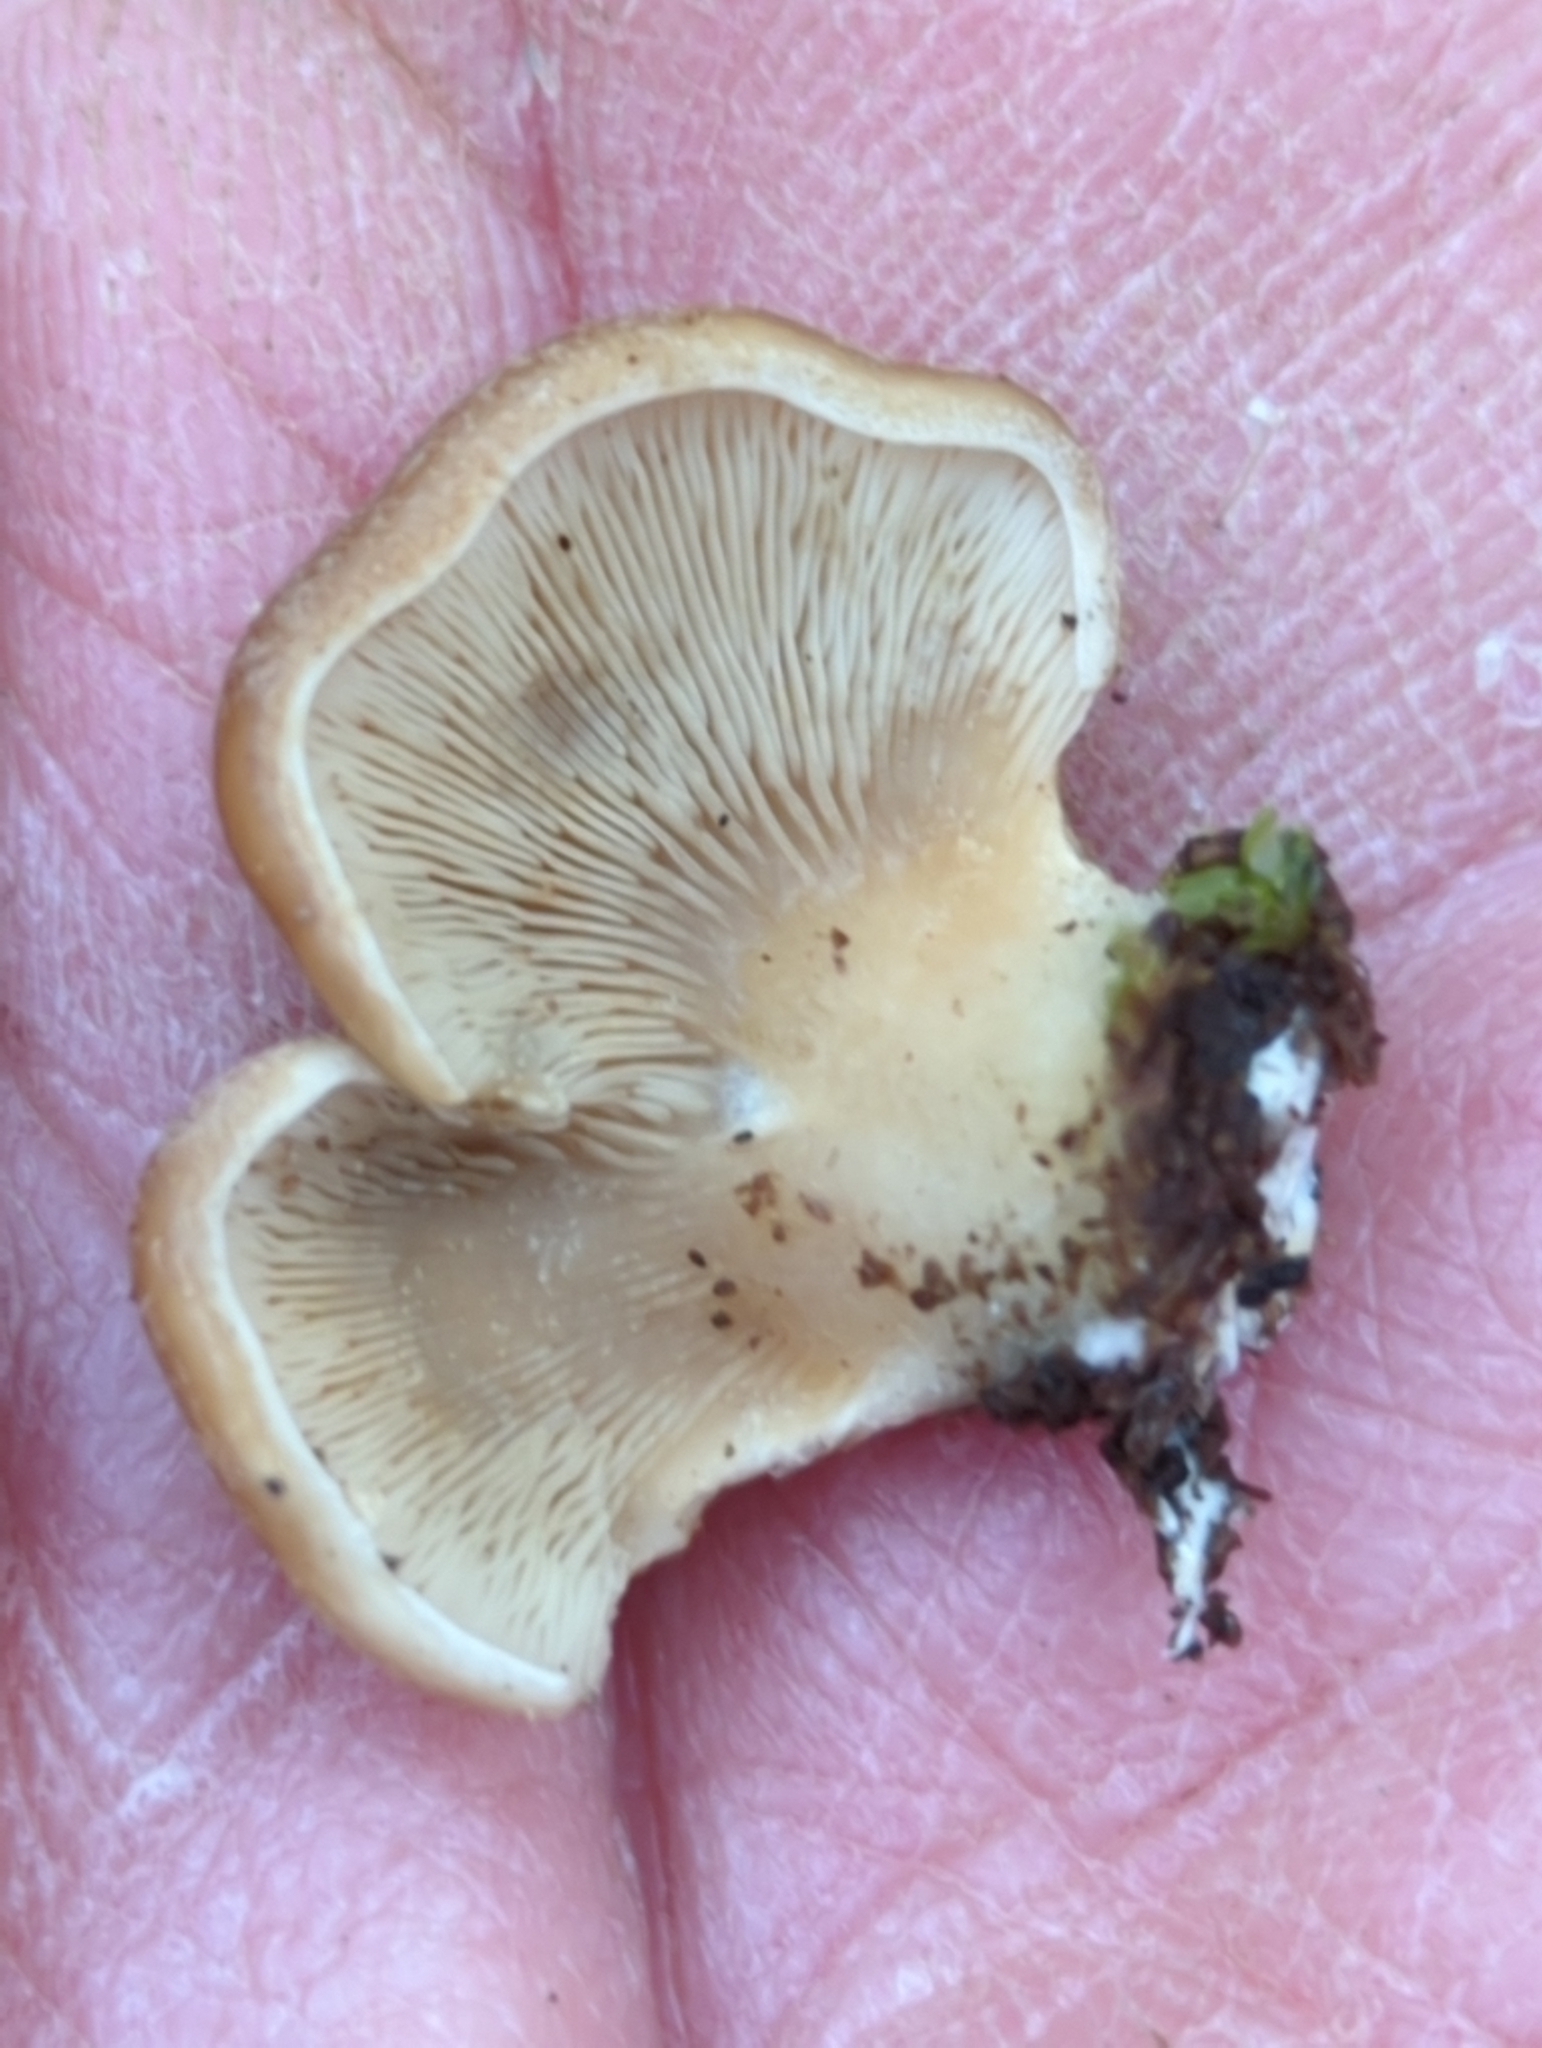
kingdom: Fungi
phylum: Basidiomycota
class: Agaricomycetes
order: Agaricales
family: Pleurotaceae
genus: Hohenbuehelia
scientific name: Hohenbuehelia angustata
